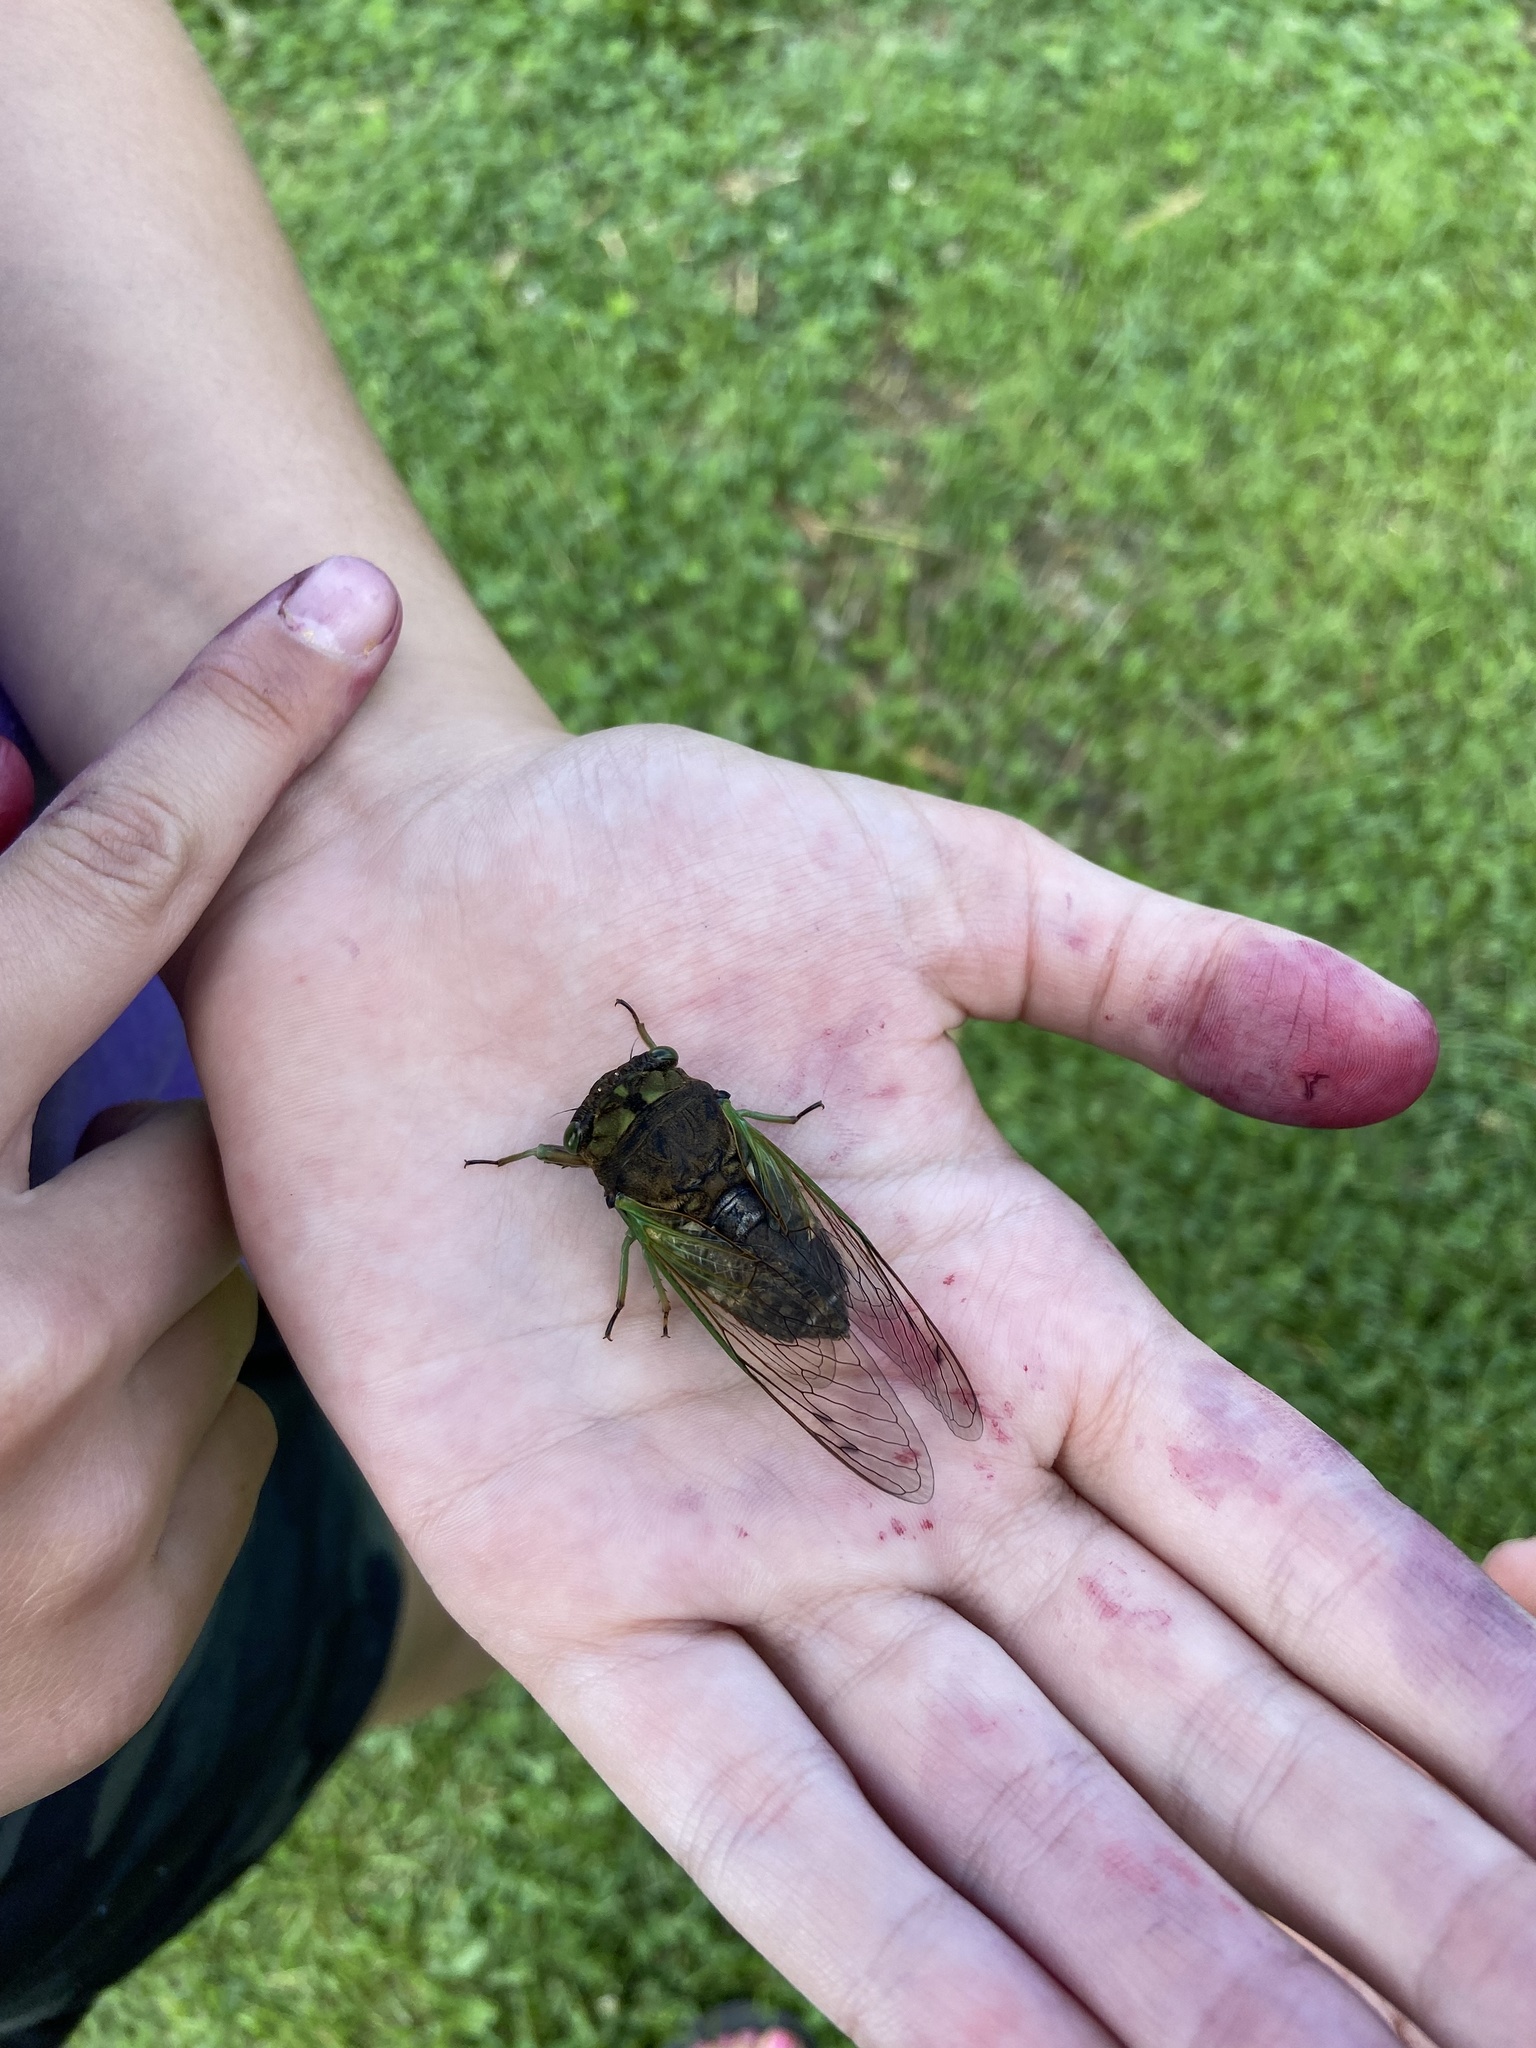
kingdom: Animalia
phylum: Arthropoda
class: Insecta
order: Hemiptera
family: Cicadidae
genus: Neotibicen
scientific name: Neotibicen tibicen
